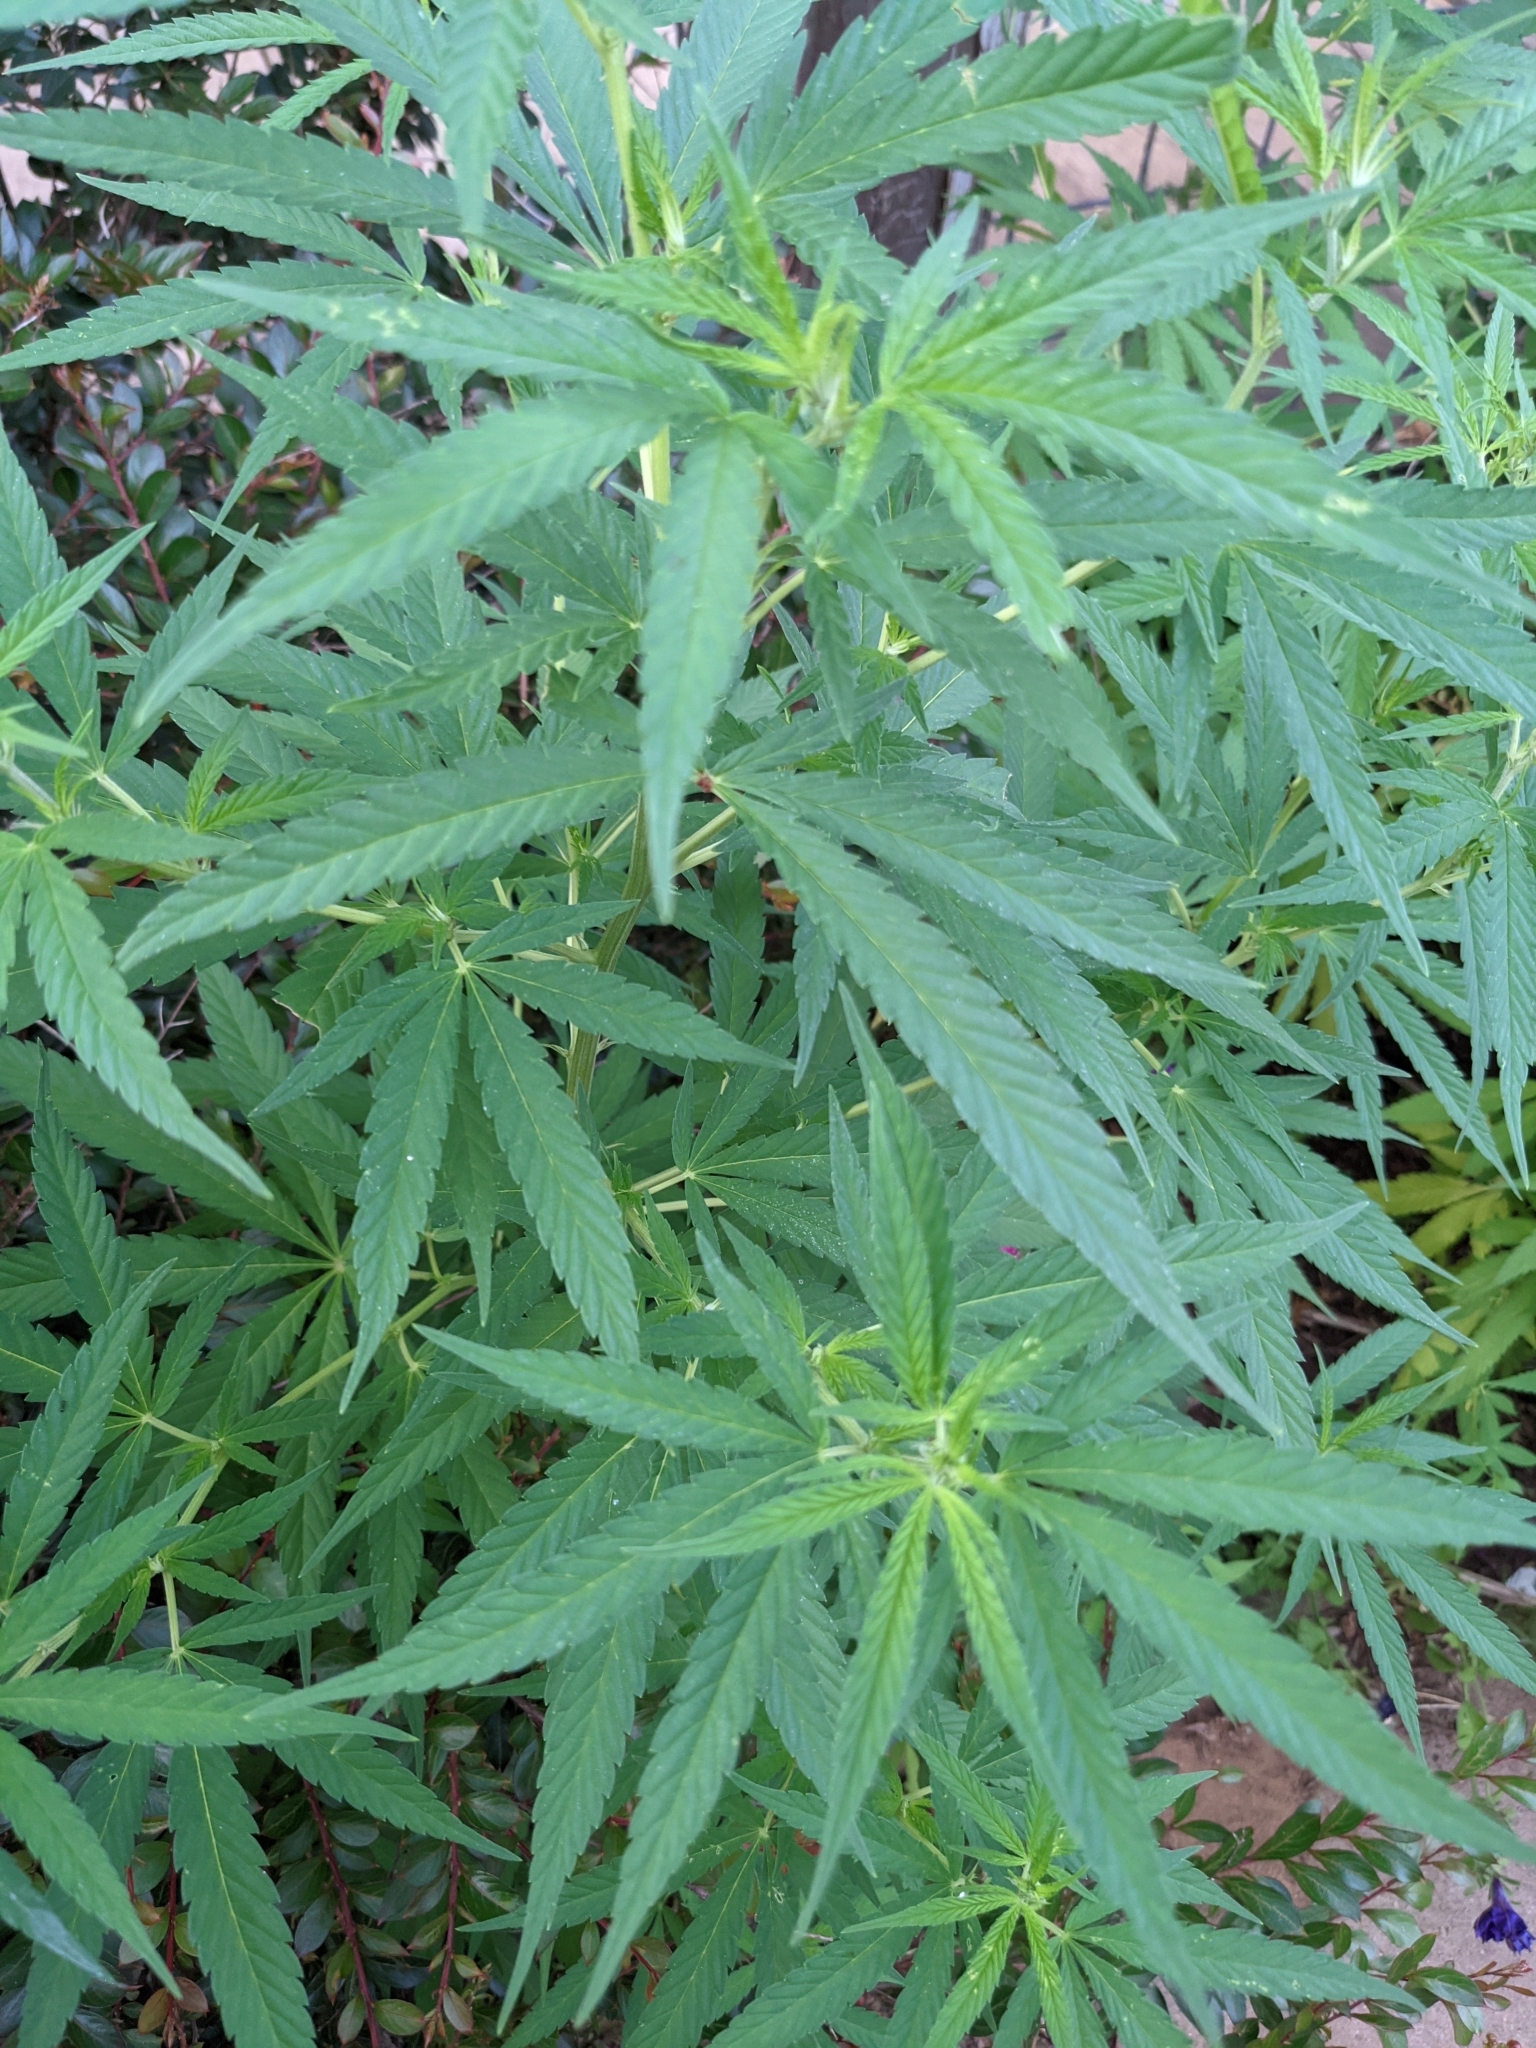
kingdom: Plantae
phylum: Tracheophyta
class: Magnoliopsida
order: Rosales
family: Cannabaceae
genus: Cannabis
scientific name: Cannabis sativa
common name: Hemp
